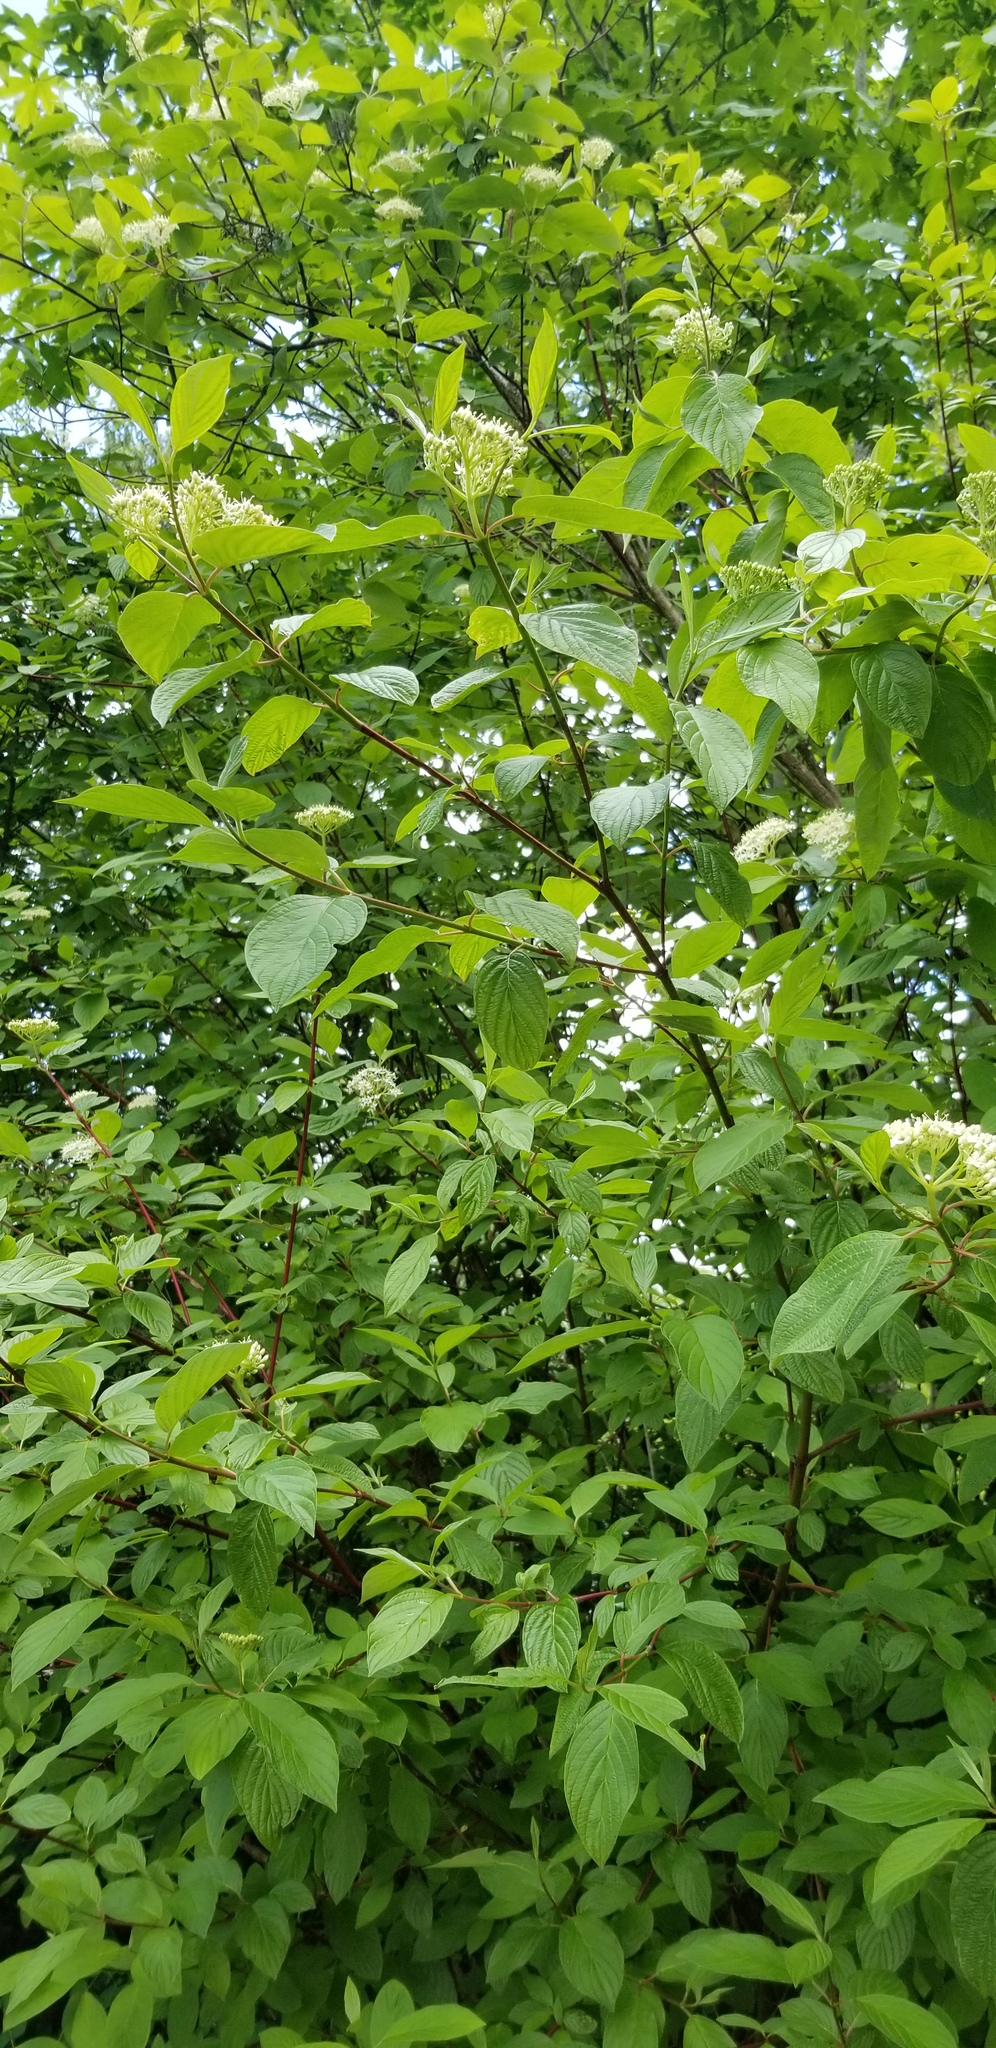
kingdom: Plantae
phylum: Tracheophyta
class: Magnoliopsida
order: Cornales
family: Cornaceae
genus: Cornus
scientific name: Cornus sericea
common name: Red-osier dogwood
